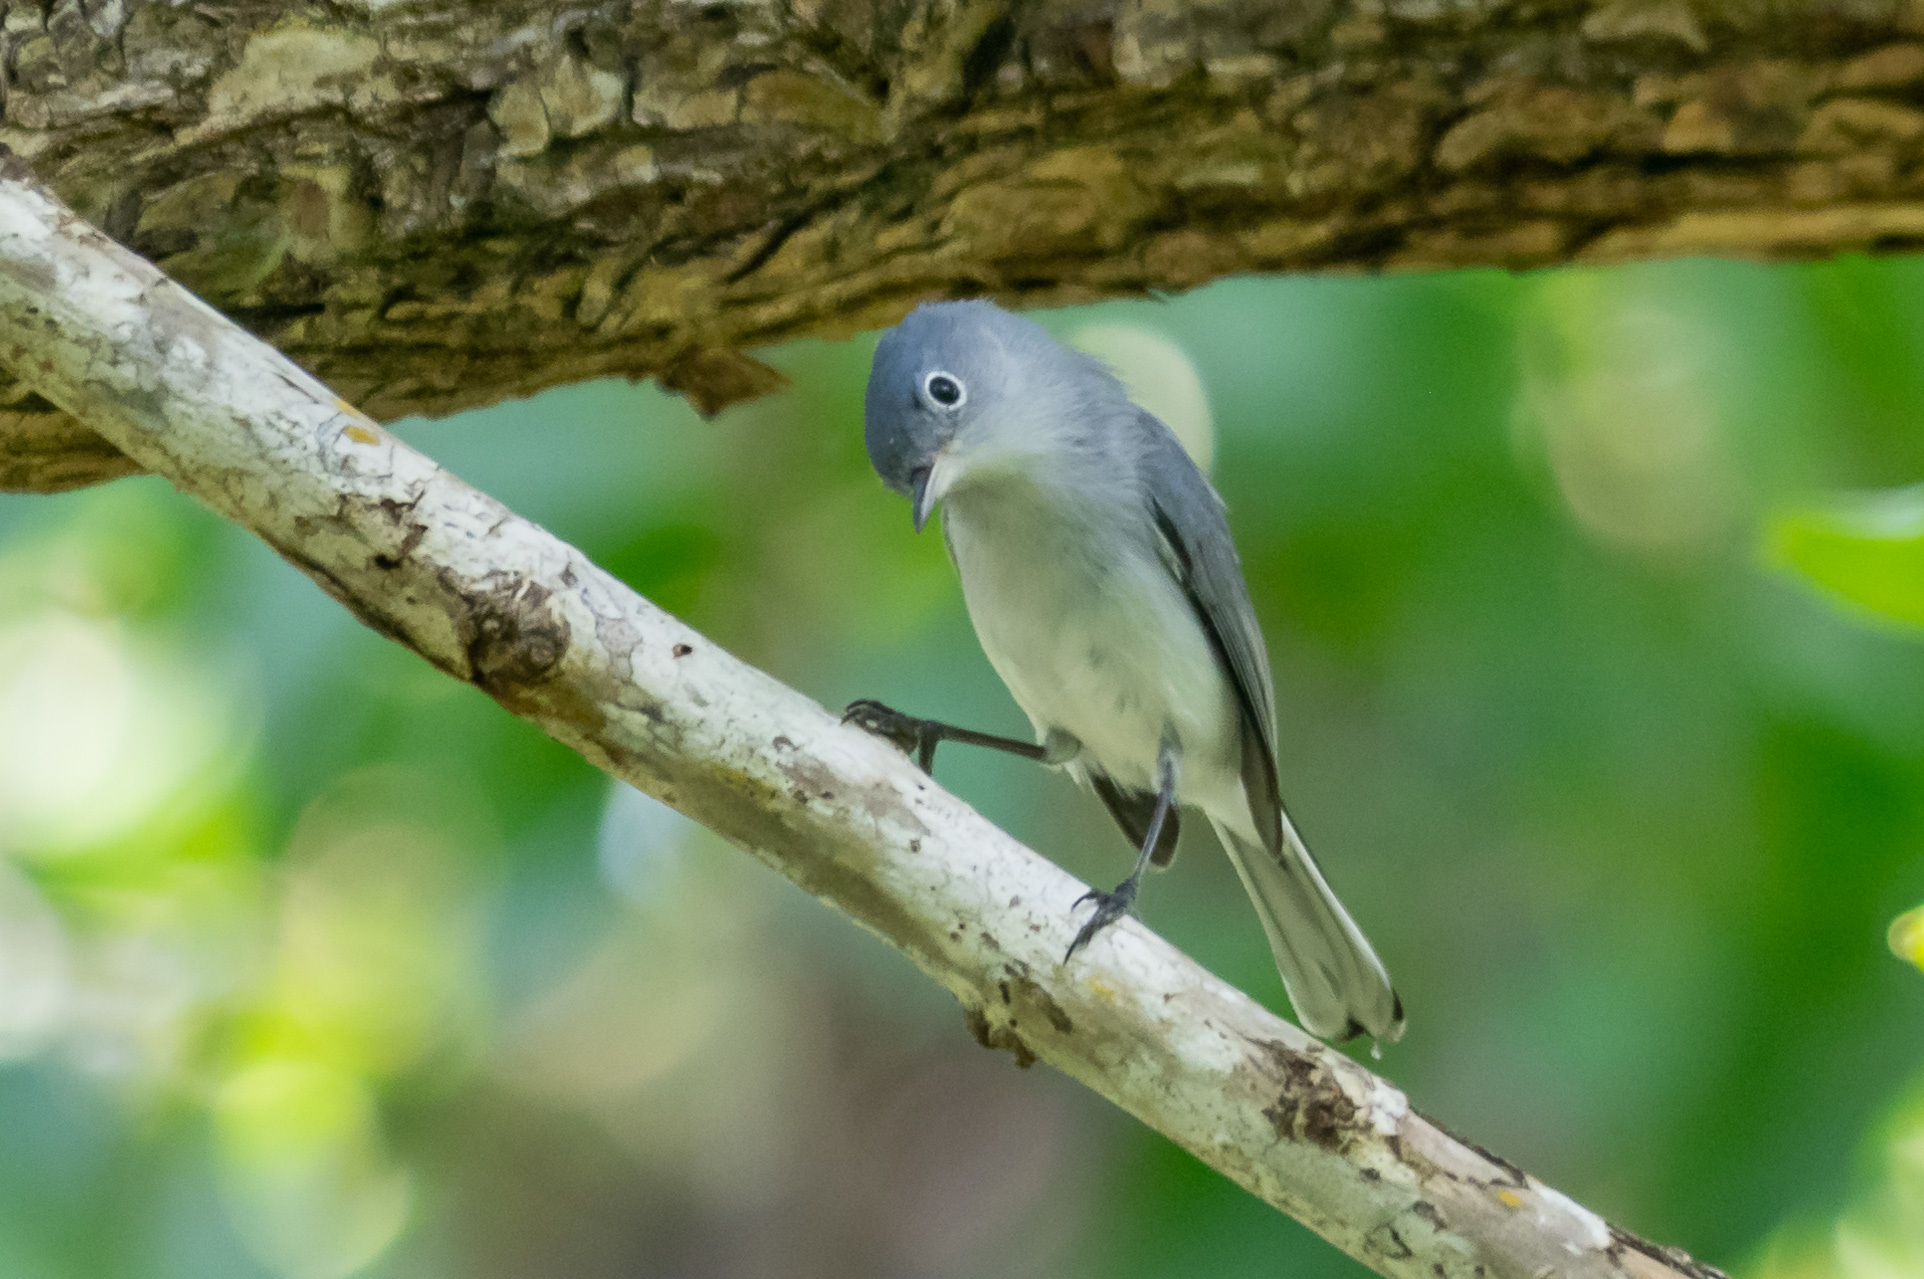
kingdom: Animalia
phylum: Chordata
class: Aves
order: Passeriformes
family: Polioptilidae
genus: Polioptila
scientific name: Polioptila caerulea
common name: Blue-gray gnatcatcher
